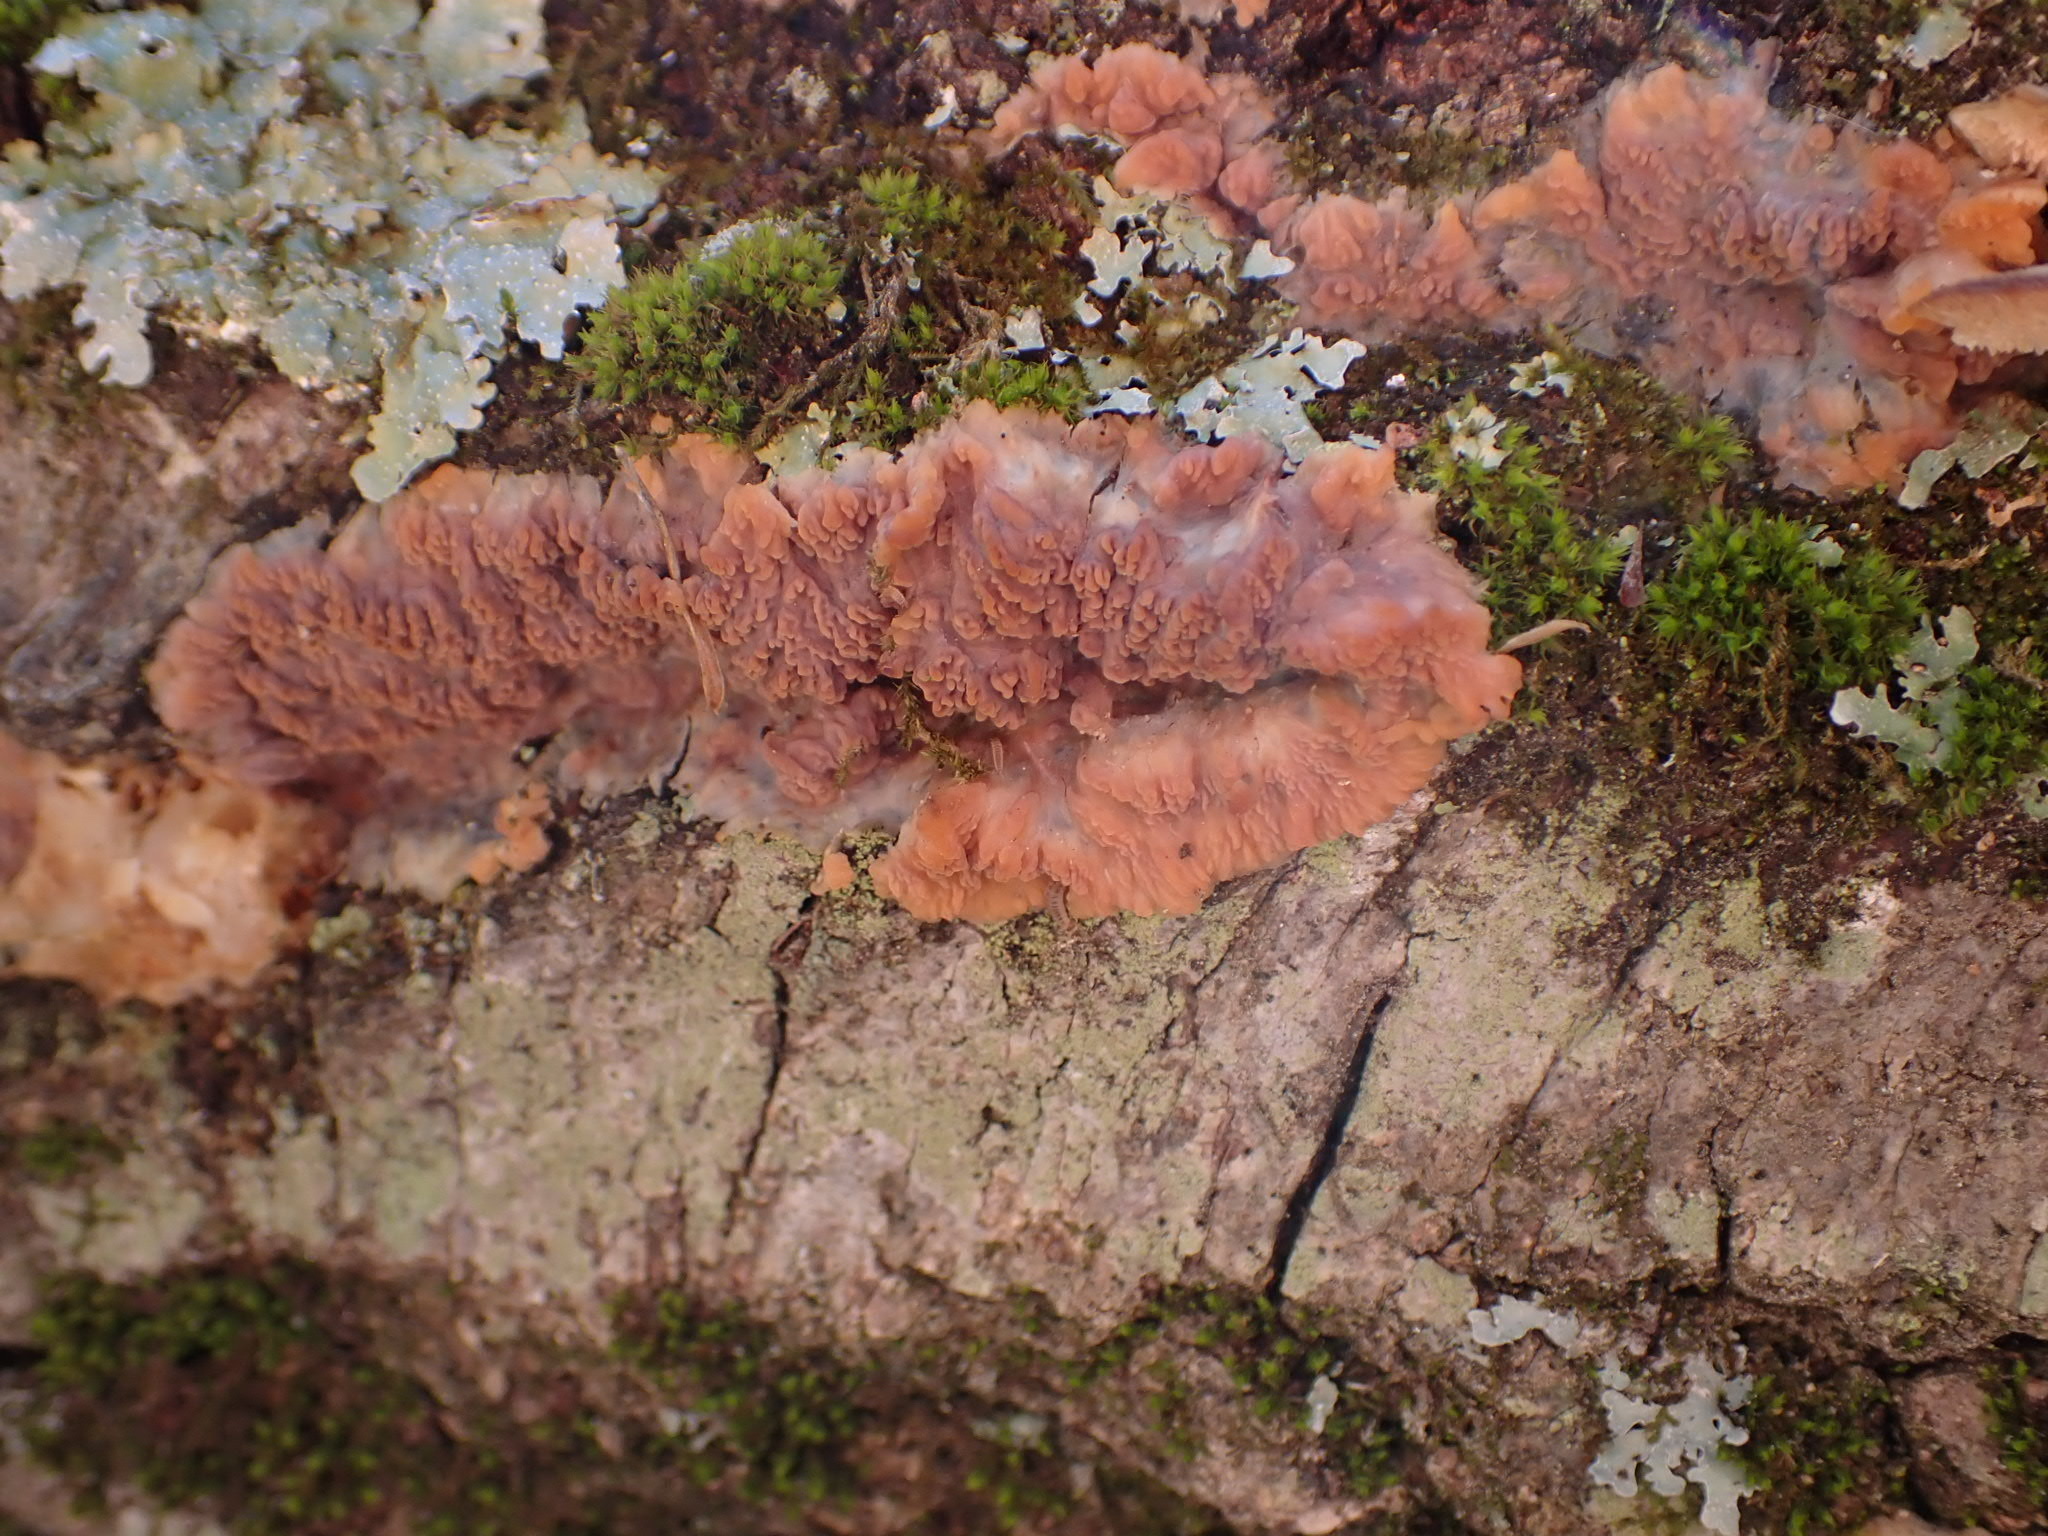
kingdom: Fungi
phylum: Basidiomycota
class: Agaricomycetes
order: Polyporales
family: Meruliaceae
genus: Phlebia
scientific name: Phlebia radiata
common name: Wrinkled crust
